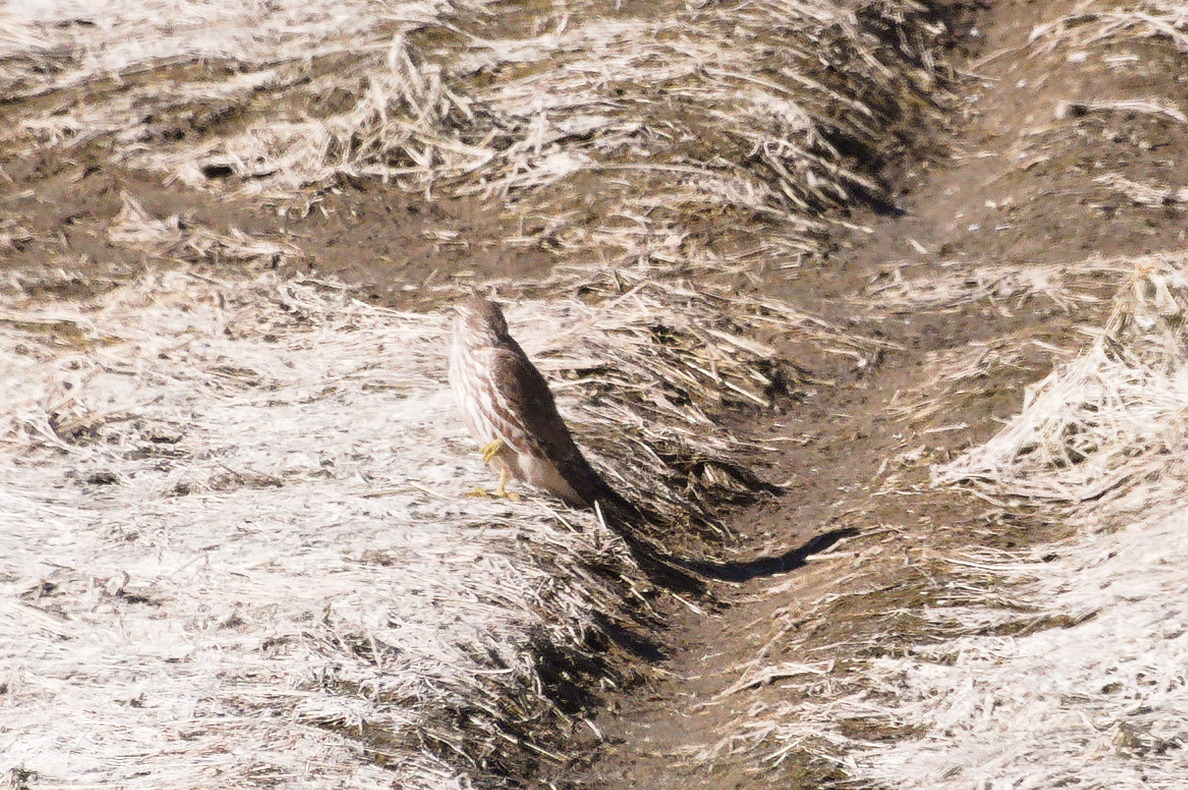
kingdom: Animalia
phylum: Chordata
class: Aves
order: Falconiformes
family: Falconidae
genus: Falco
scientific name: Falco columbarius
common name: Merlin
